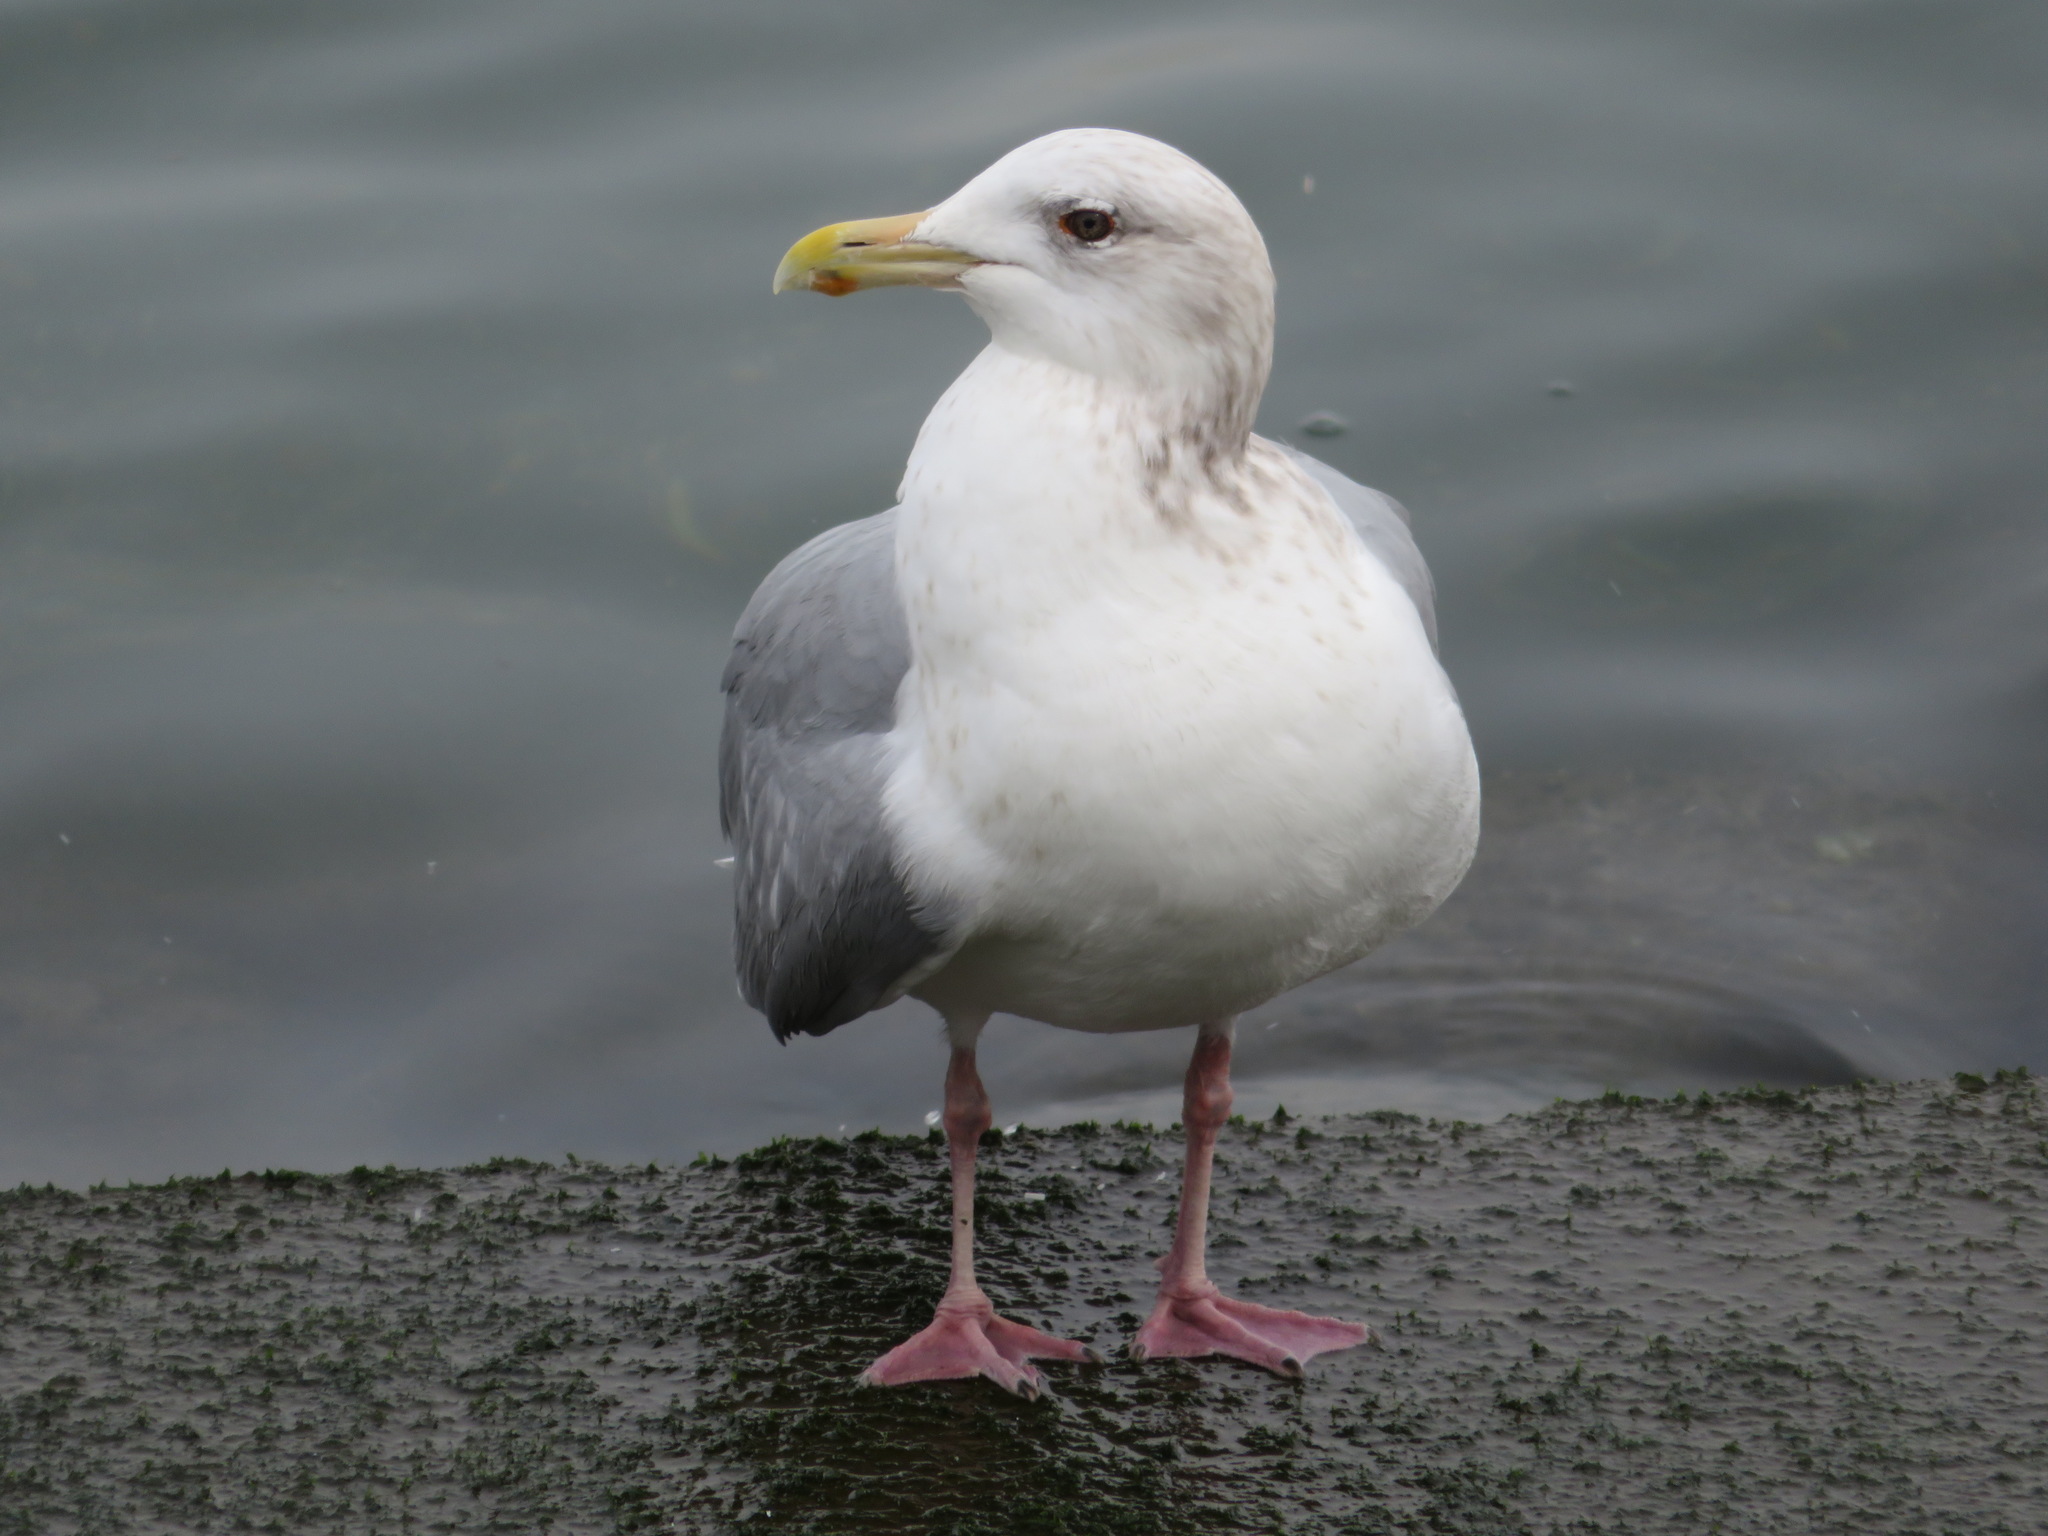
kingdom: Animalia
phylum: Chordata
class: Aves
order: Charadriiformes
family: Laridae
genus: Larus
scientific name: Larus vegae
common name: Vega gull
